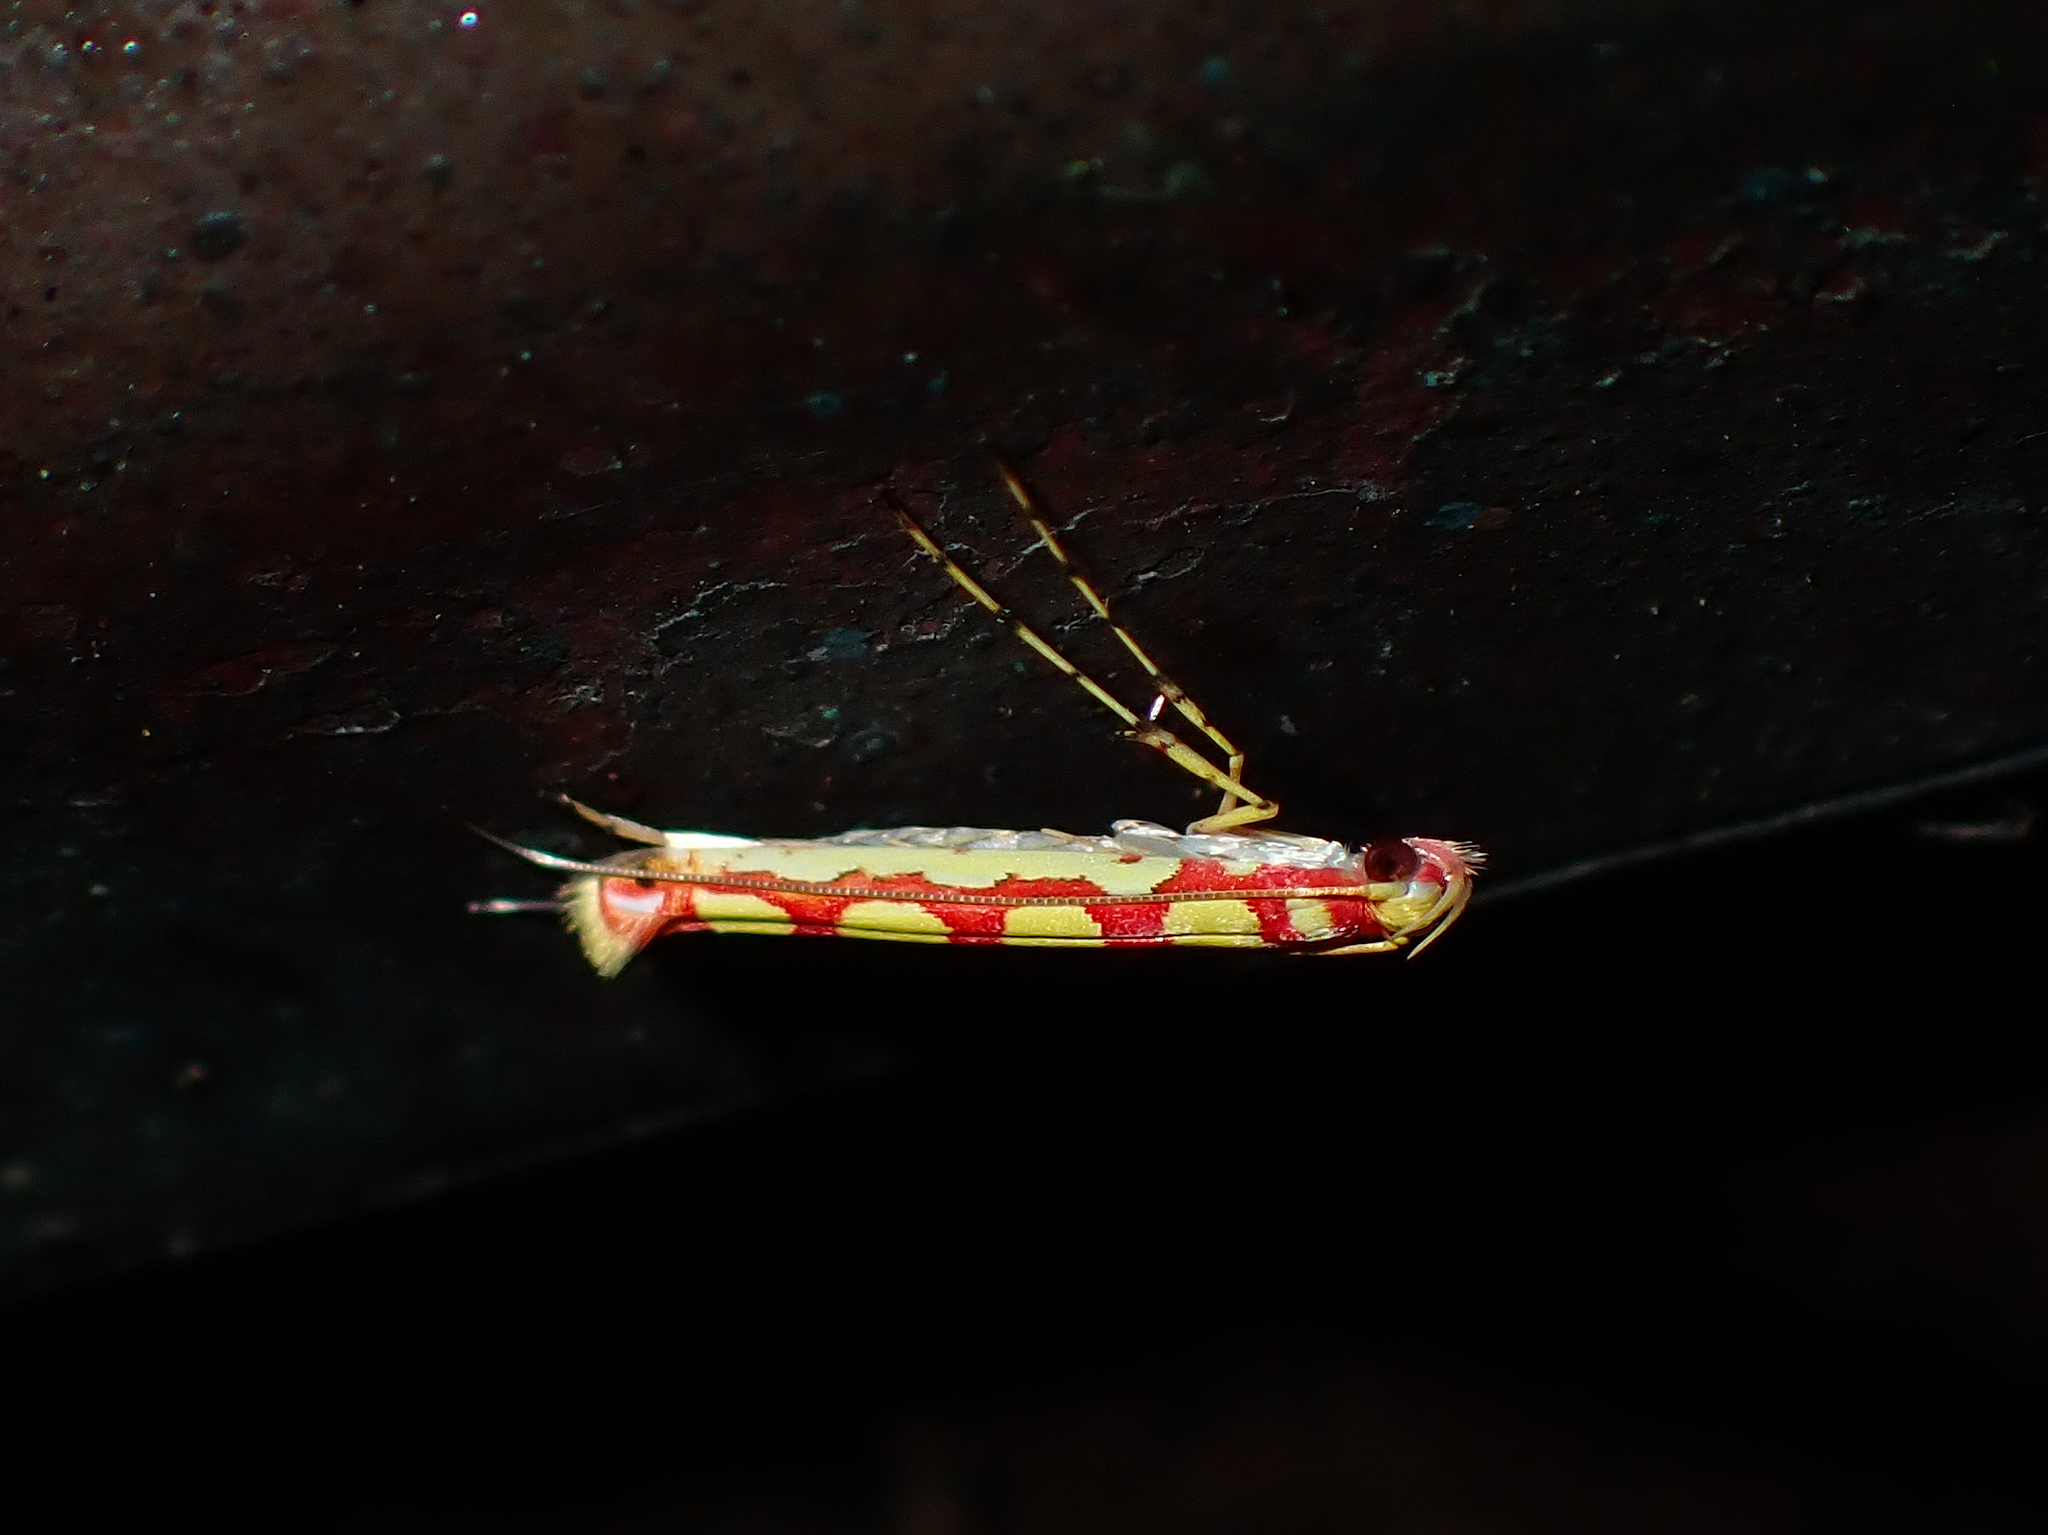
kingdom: Animalia
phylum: Arthropoda
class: Insecta
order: Lepidoptera
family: Gracillariidae
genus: Macarostola
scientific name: Macarostola miniella
